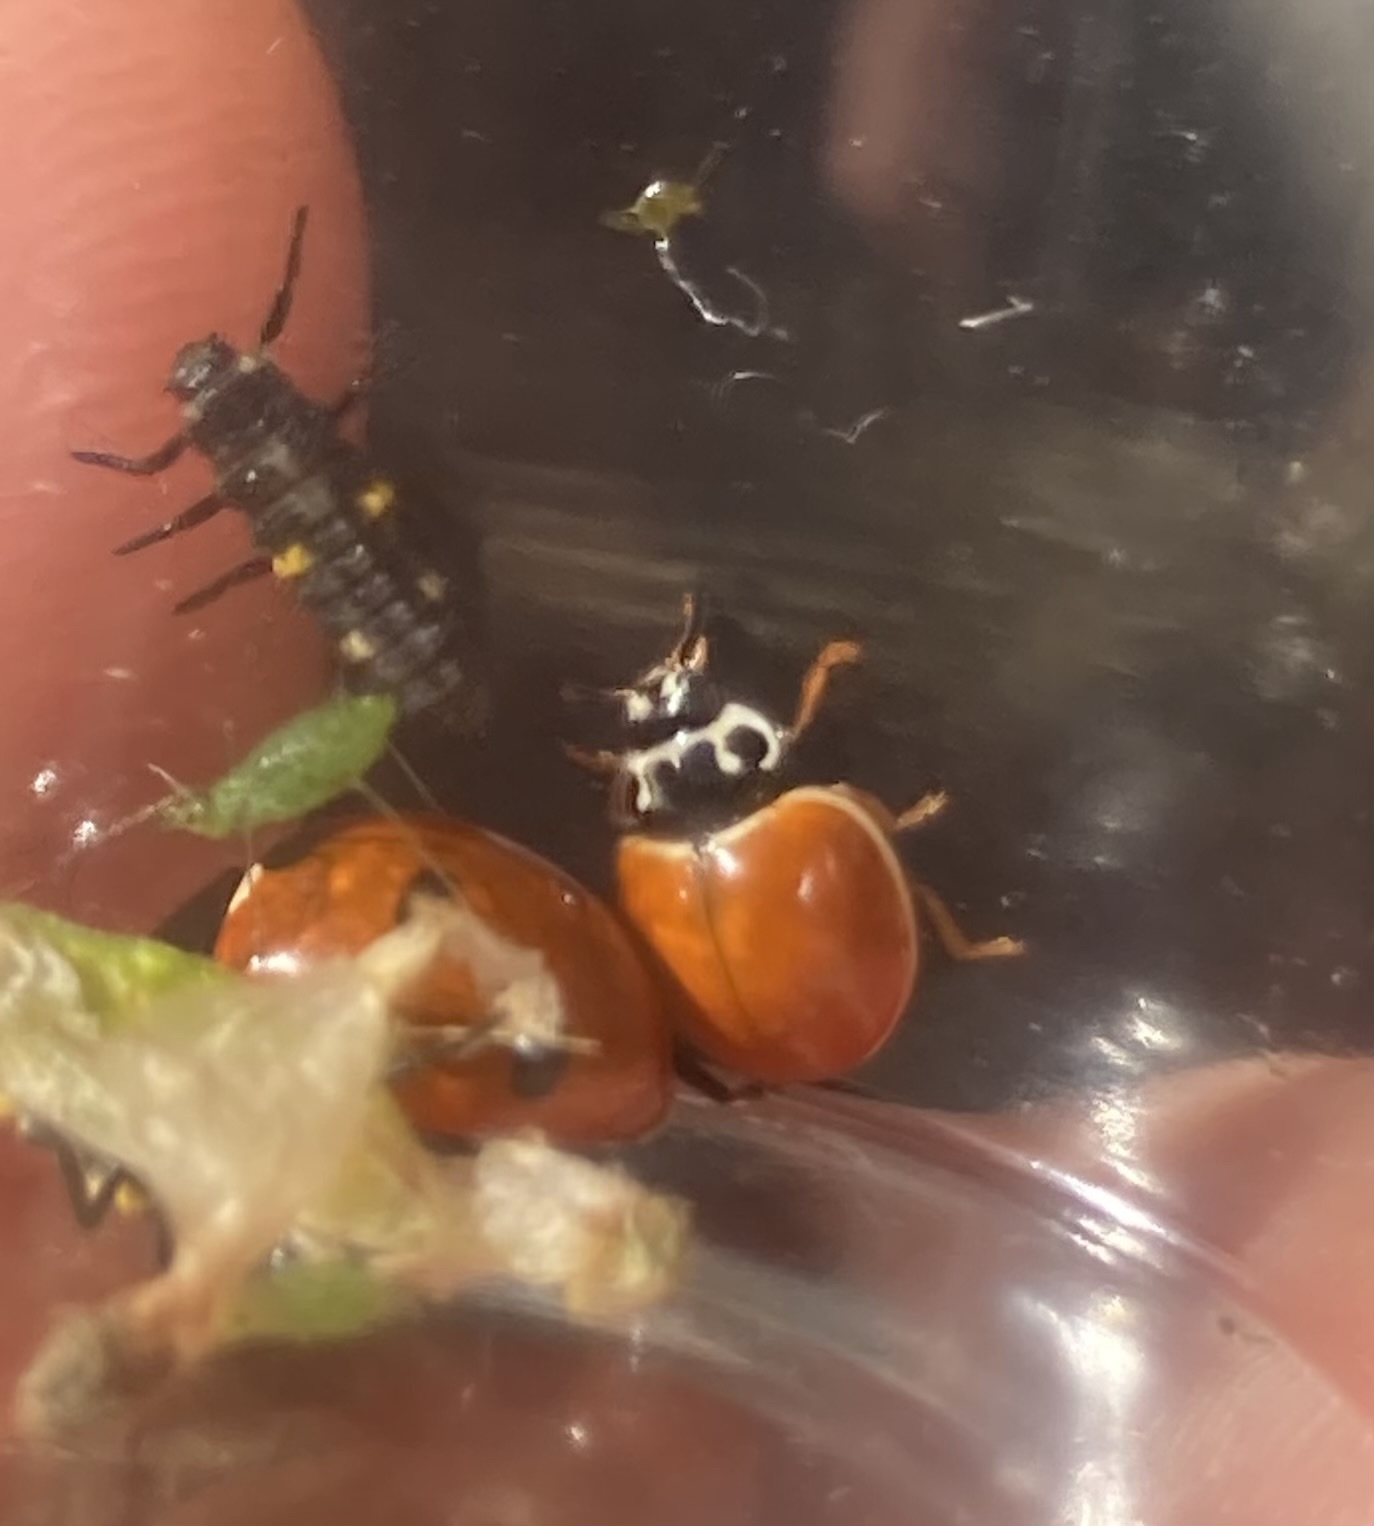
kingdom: Animalia
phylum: Arthropoda
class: Insecta
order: Coleoptera
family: Coccinellidae
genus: Cycloneda
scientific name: Cycloneda munda
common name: Polished lady beetle
